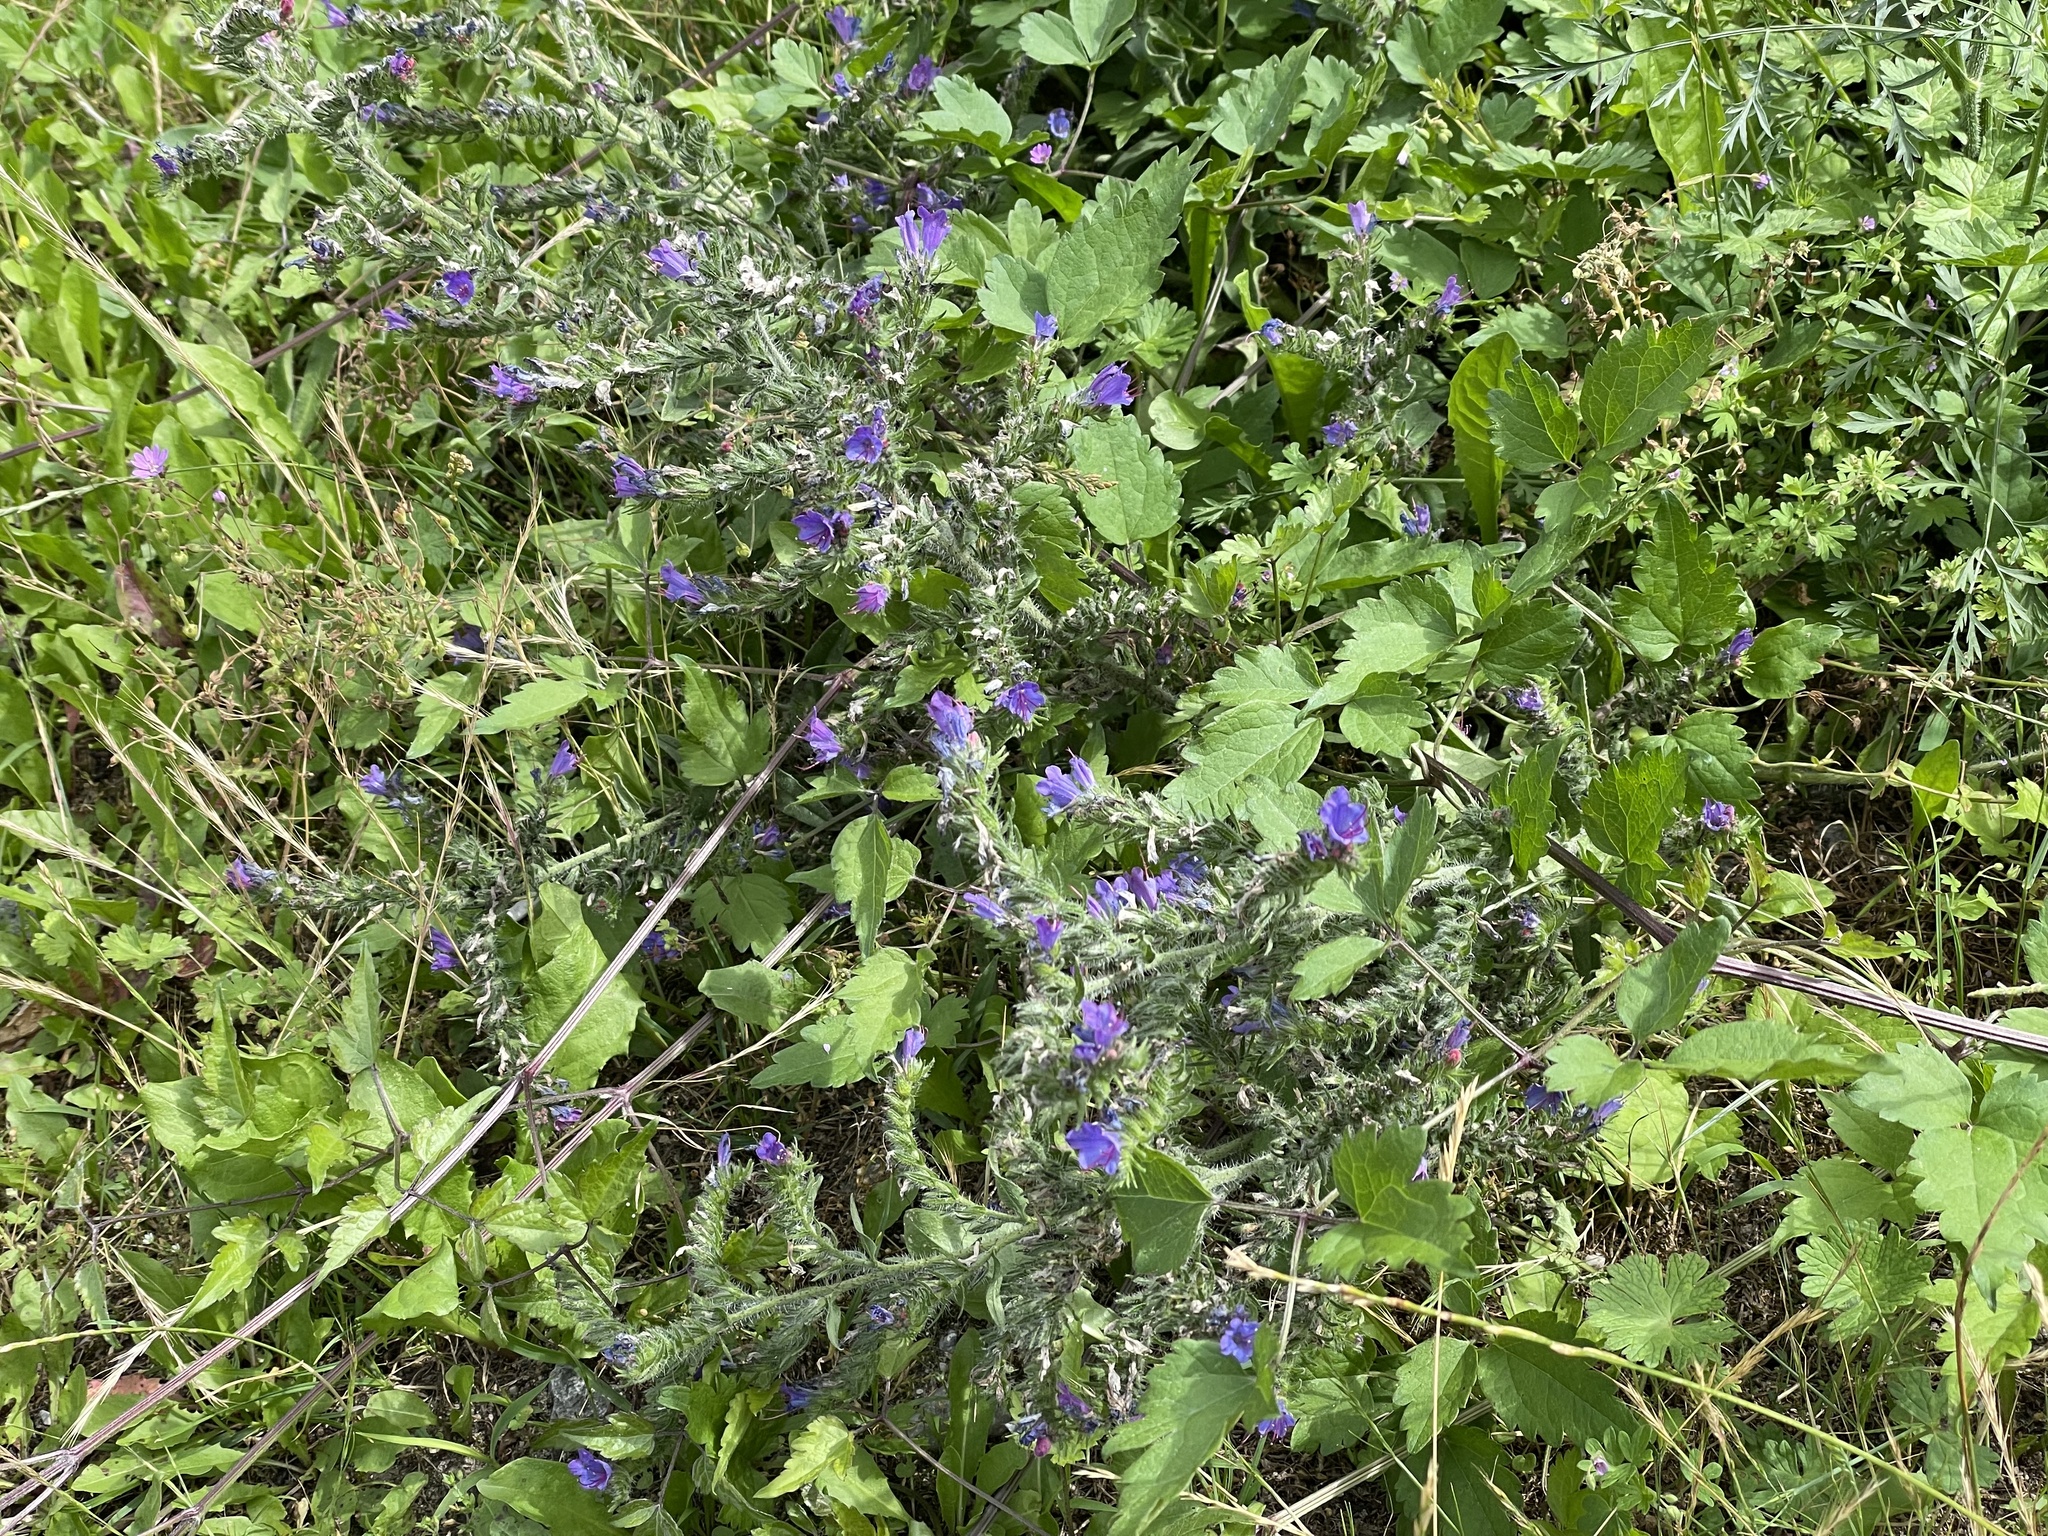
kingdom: Plantae
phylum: Tracheophyta
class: Magnoliopsida
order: Boraginales
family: Boraginaceae
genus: Echium
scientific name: Echium vulgare
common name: Common viper's bugloss
